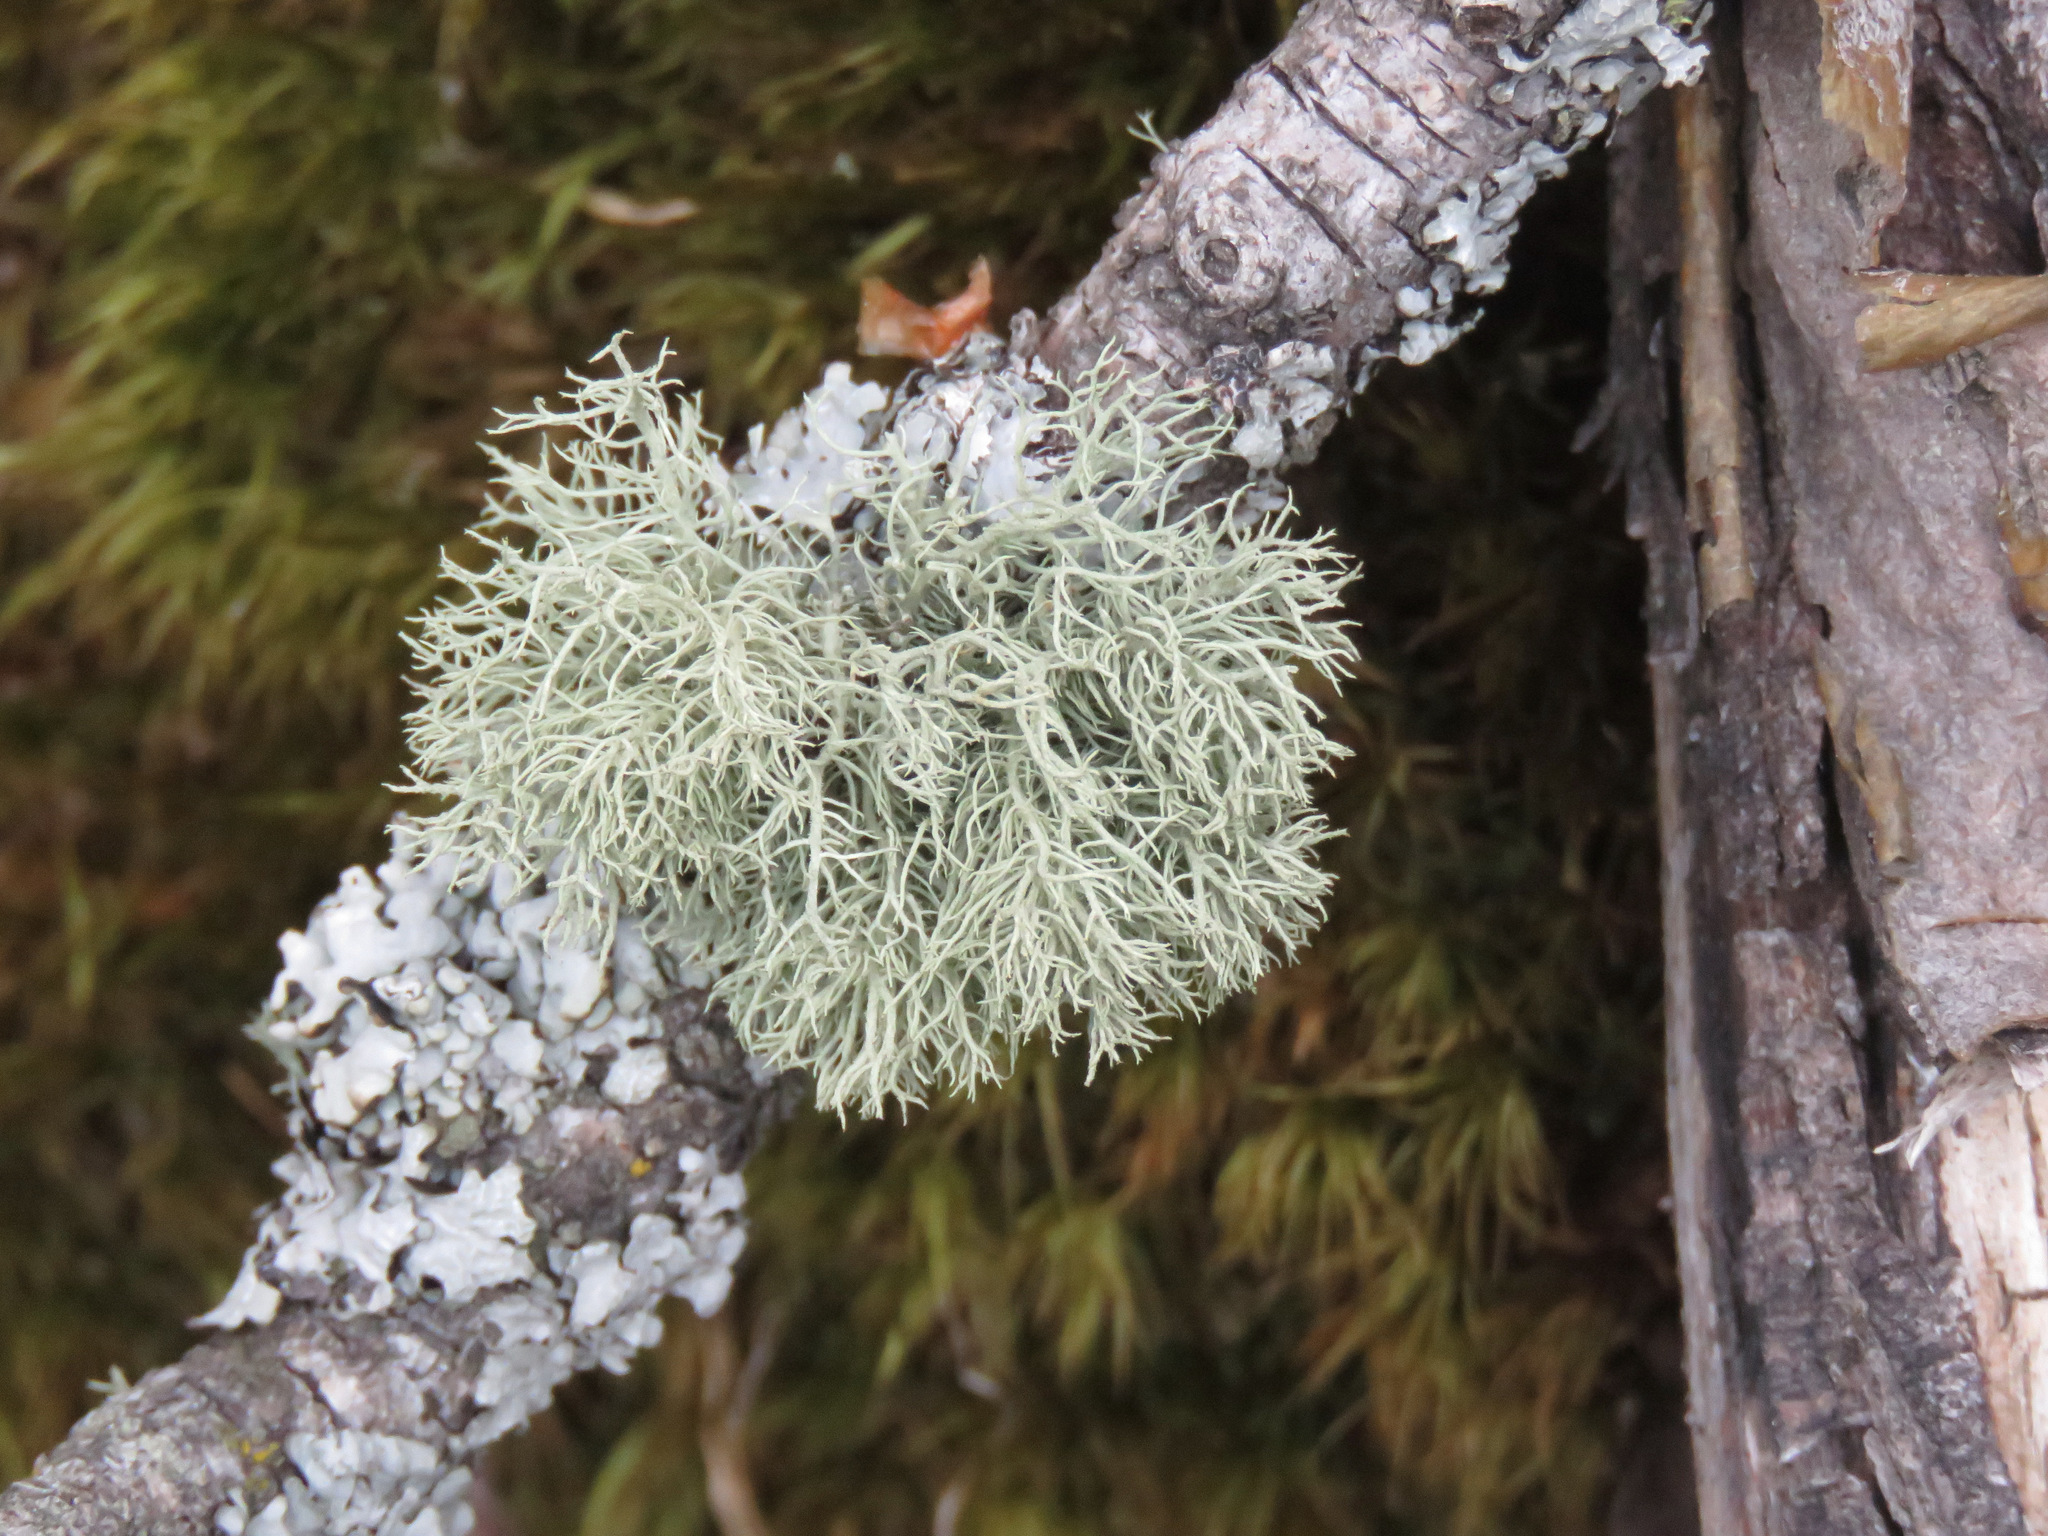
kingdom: Fungi
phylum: Ascomycota
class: Lecanoromycetes
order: Lecanorales
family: Parmeliaceae
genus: Usnea
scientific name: Usnea hirta
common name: Bristly beard lichen
